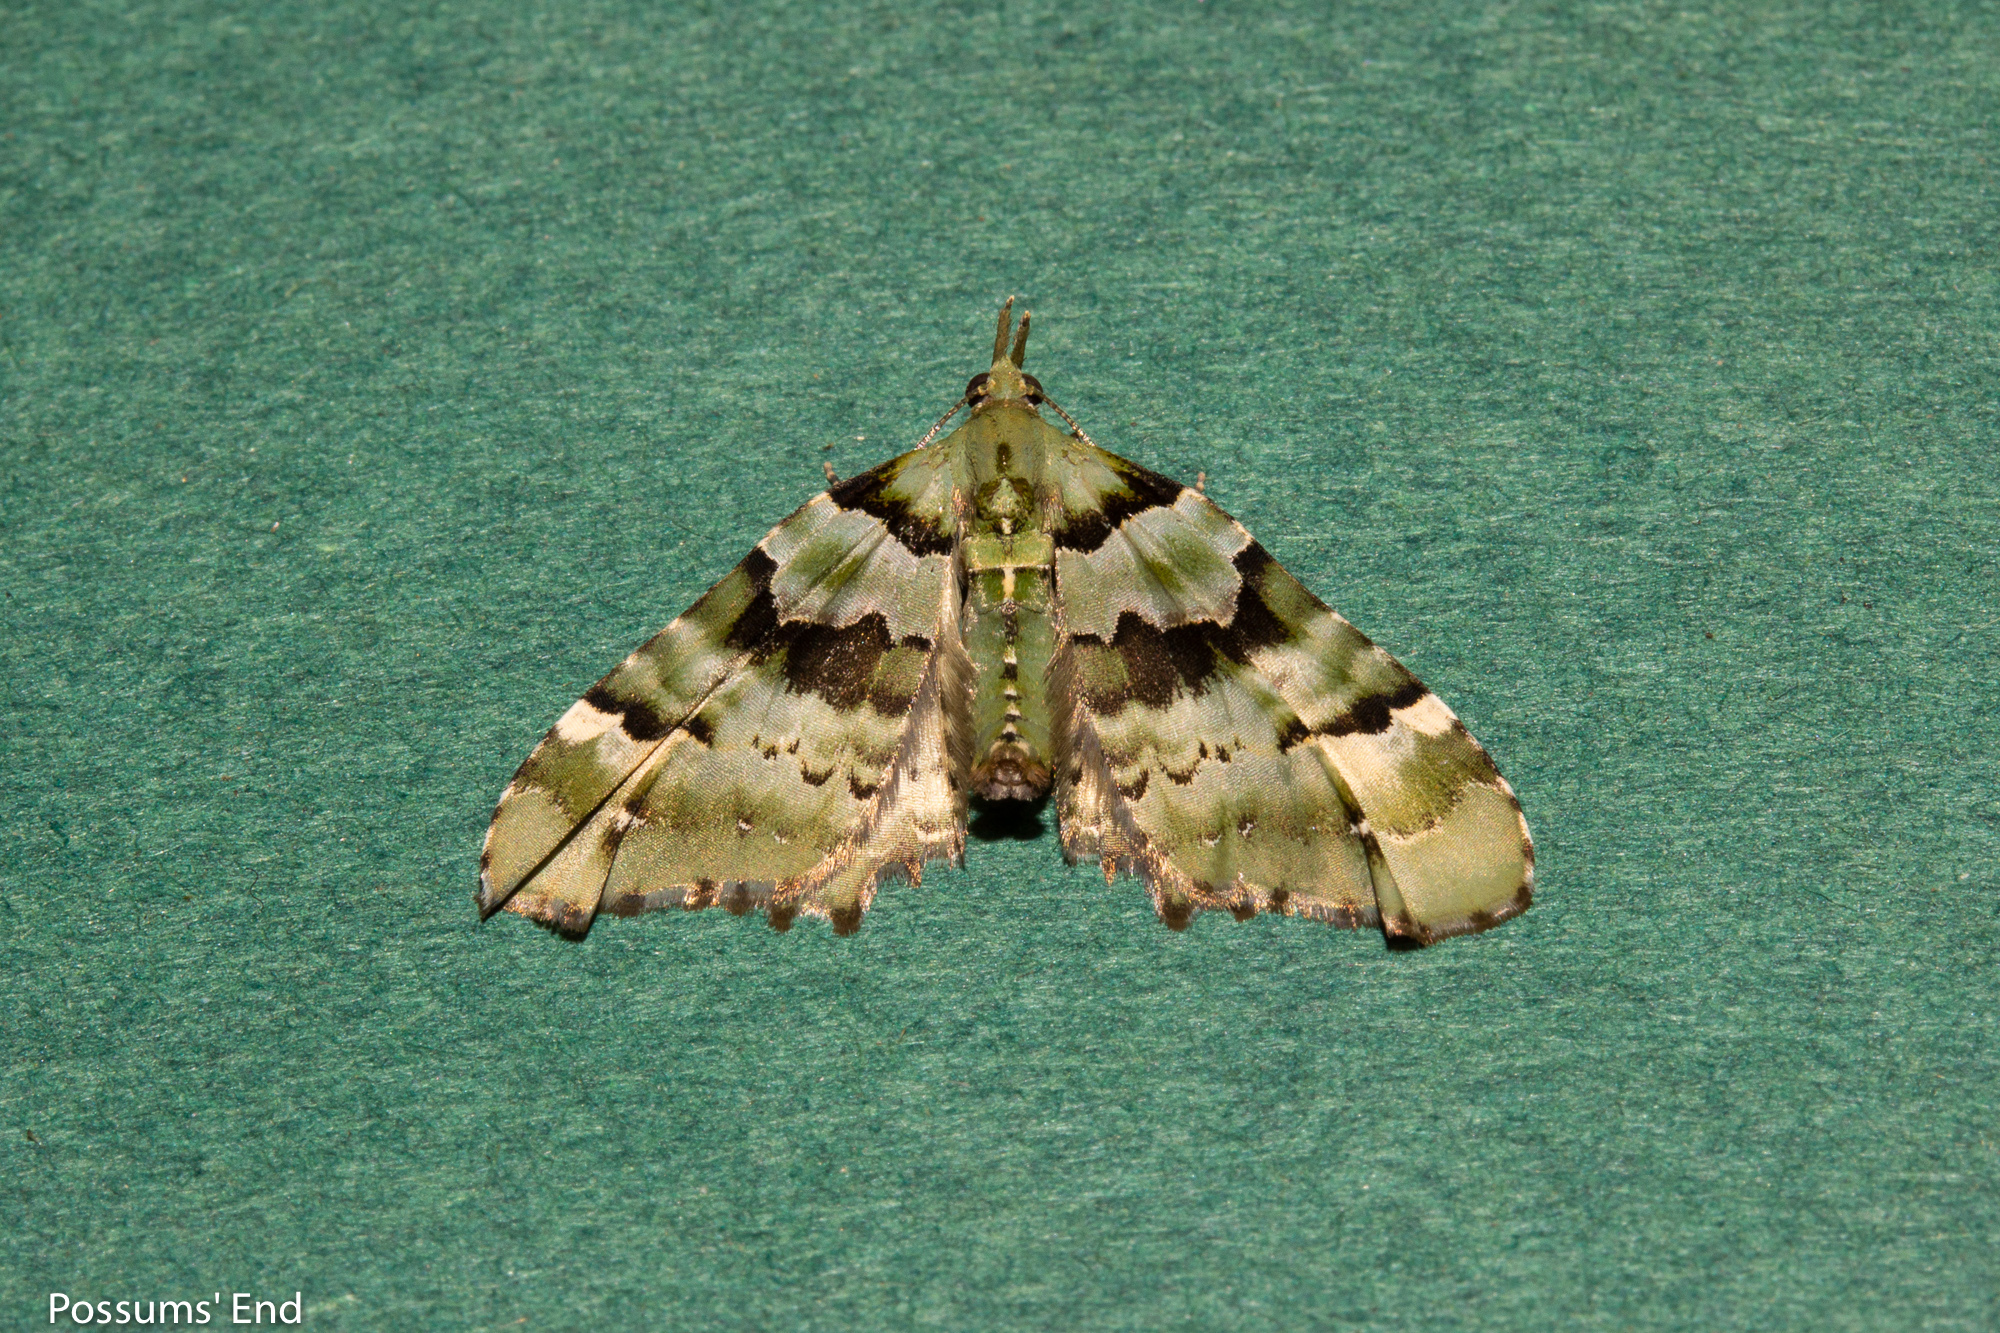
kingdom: Animalia
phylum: Arthropoda
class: Insecta
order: Lepidoptera
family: Geometridae
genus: Elvia
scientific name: Elvia glaucata
